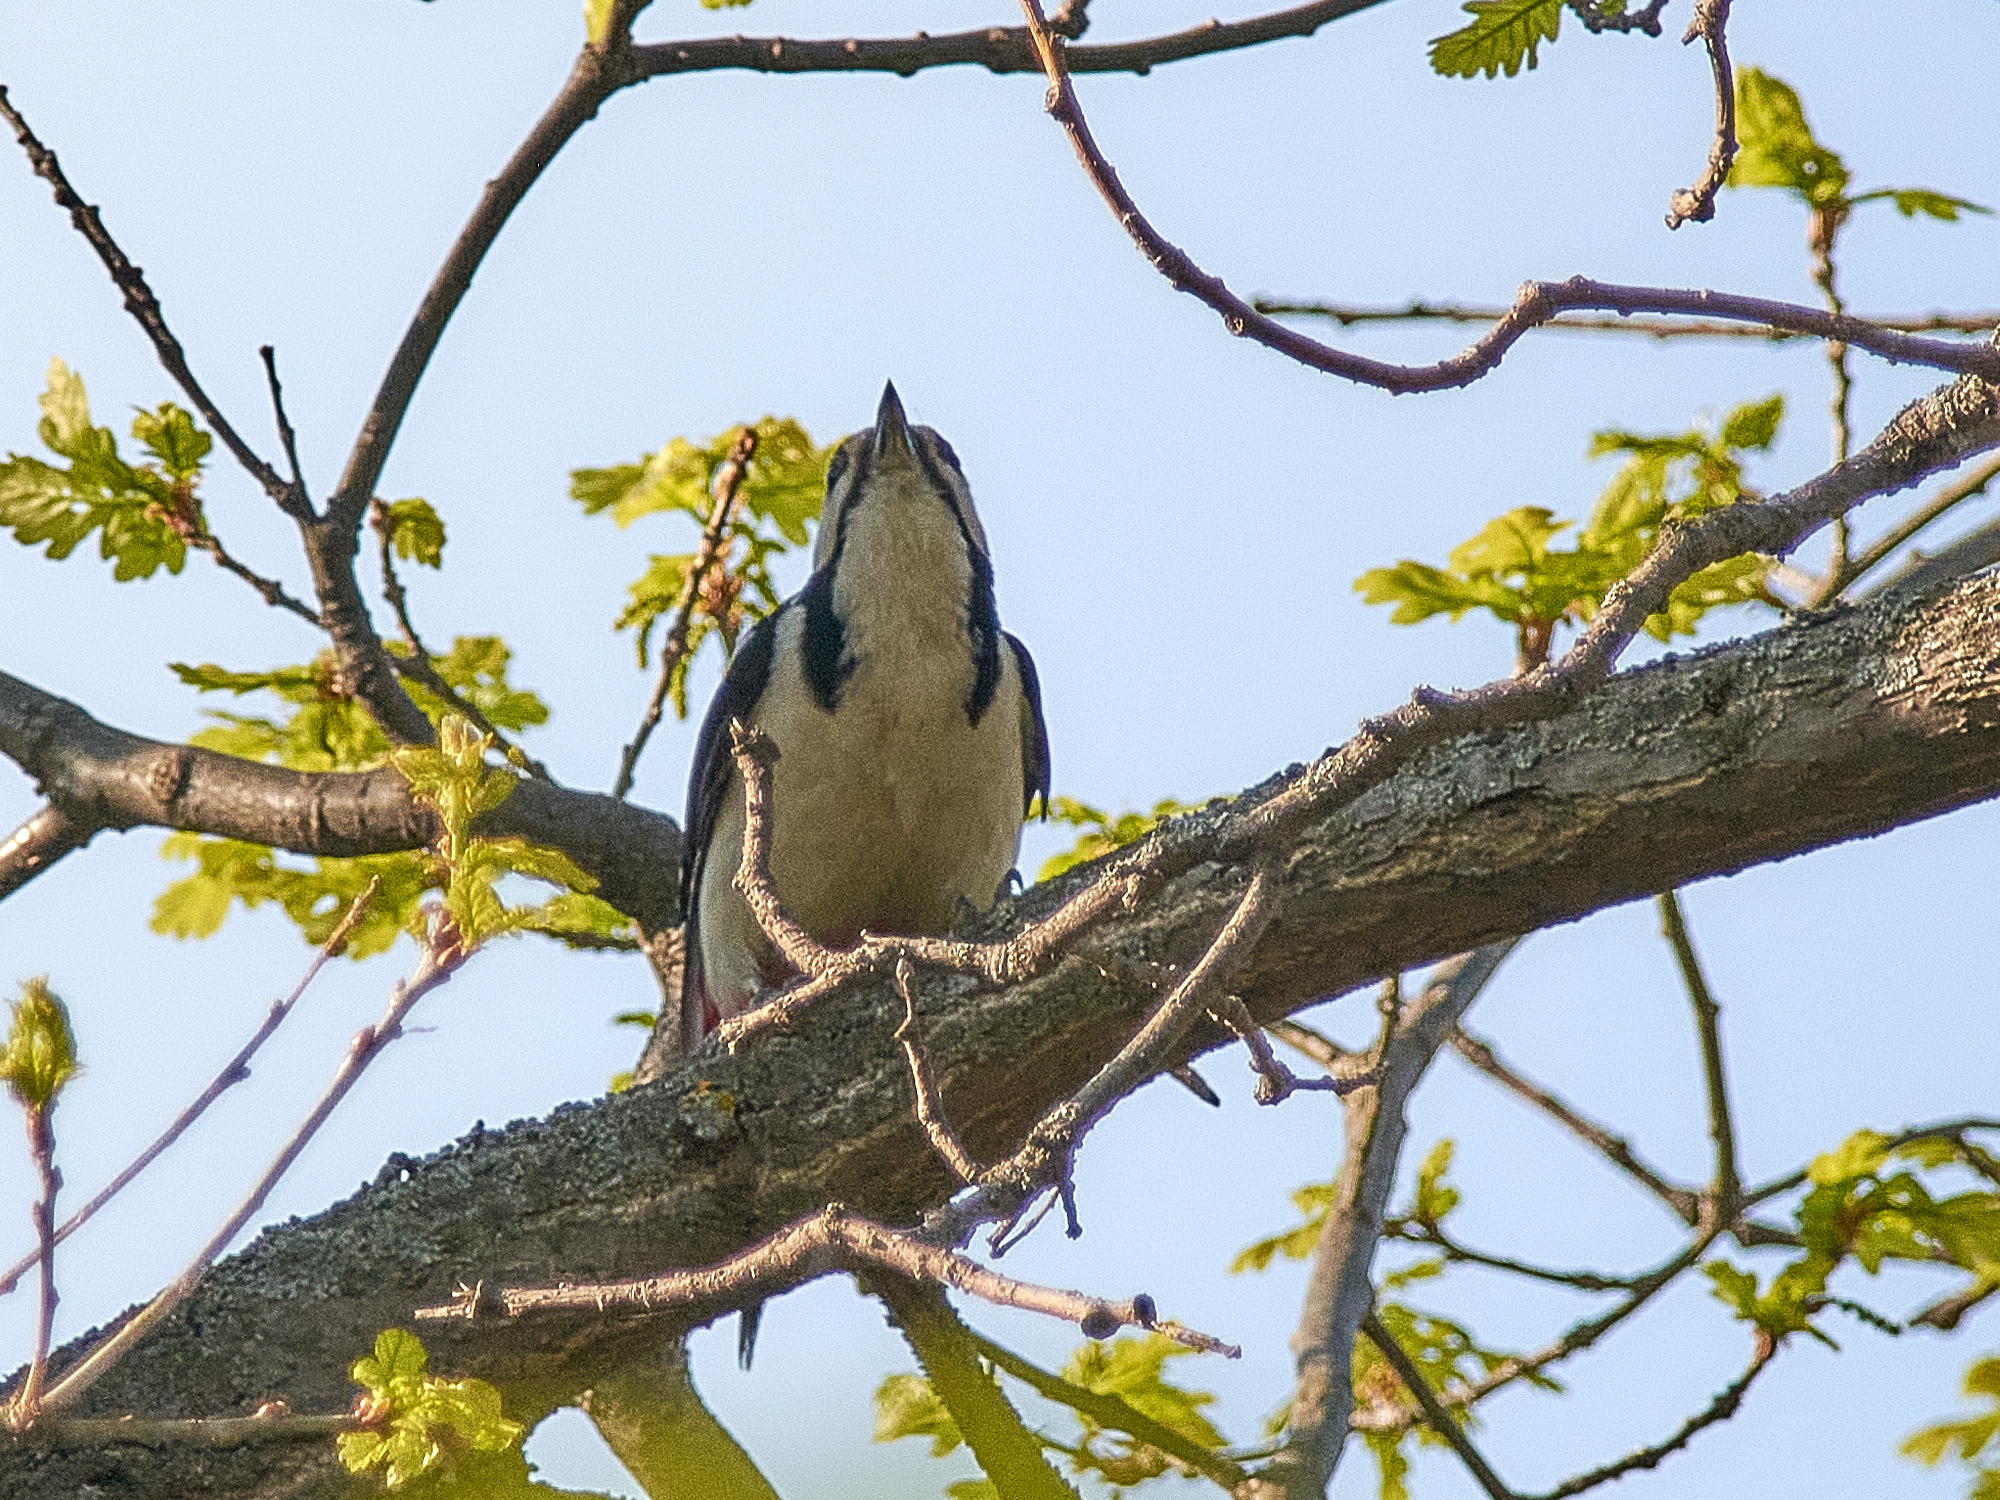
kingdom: Animalia
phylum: Chordata
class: Aves
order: Piciformes
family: Picidae
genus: Dendrocopos
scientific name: Dendrocopos major
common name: Great spotted woodpecker
